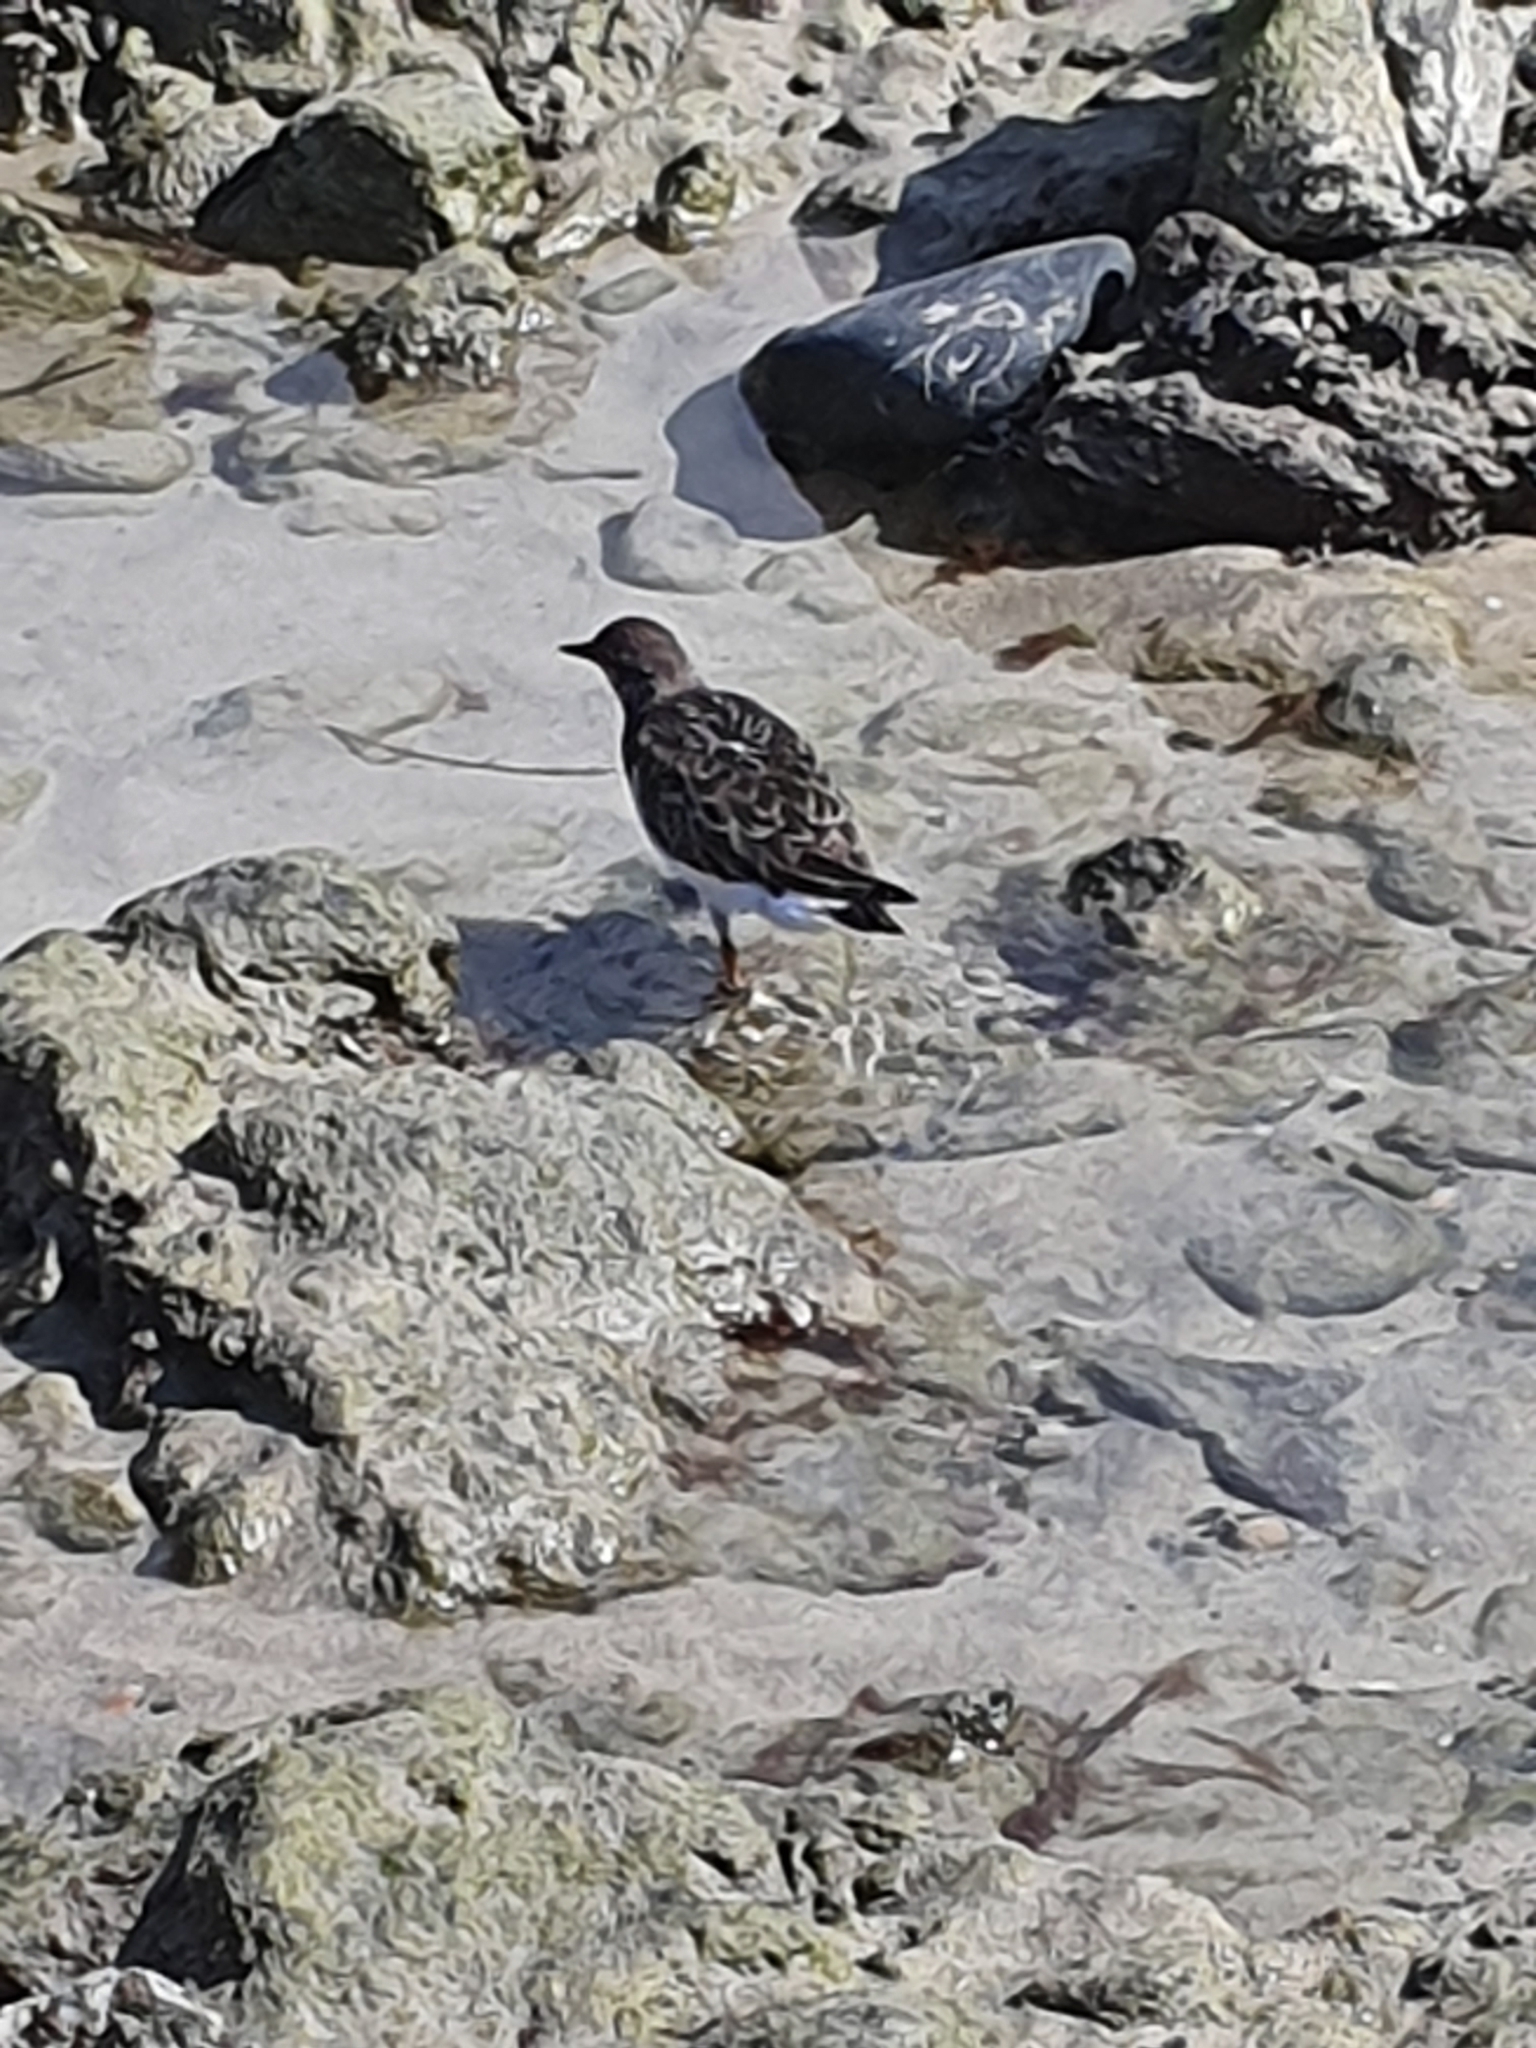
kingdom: Animalia
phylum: Chordata
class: Aves
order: Charadriiformes
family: Scolopacidae
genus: Arenaria
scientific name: Arenaria interpres
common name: Ruddy turnstone
